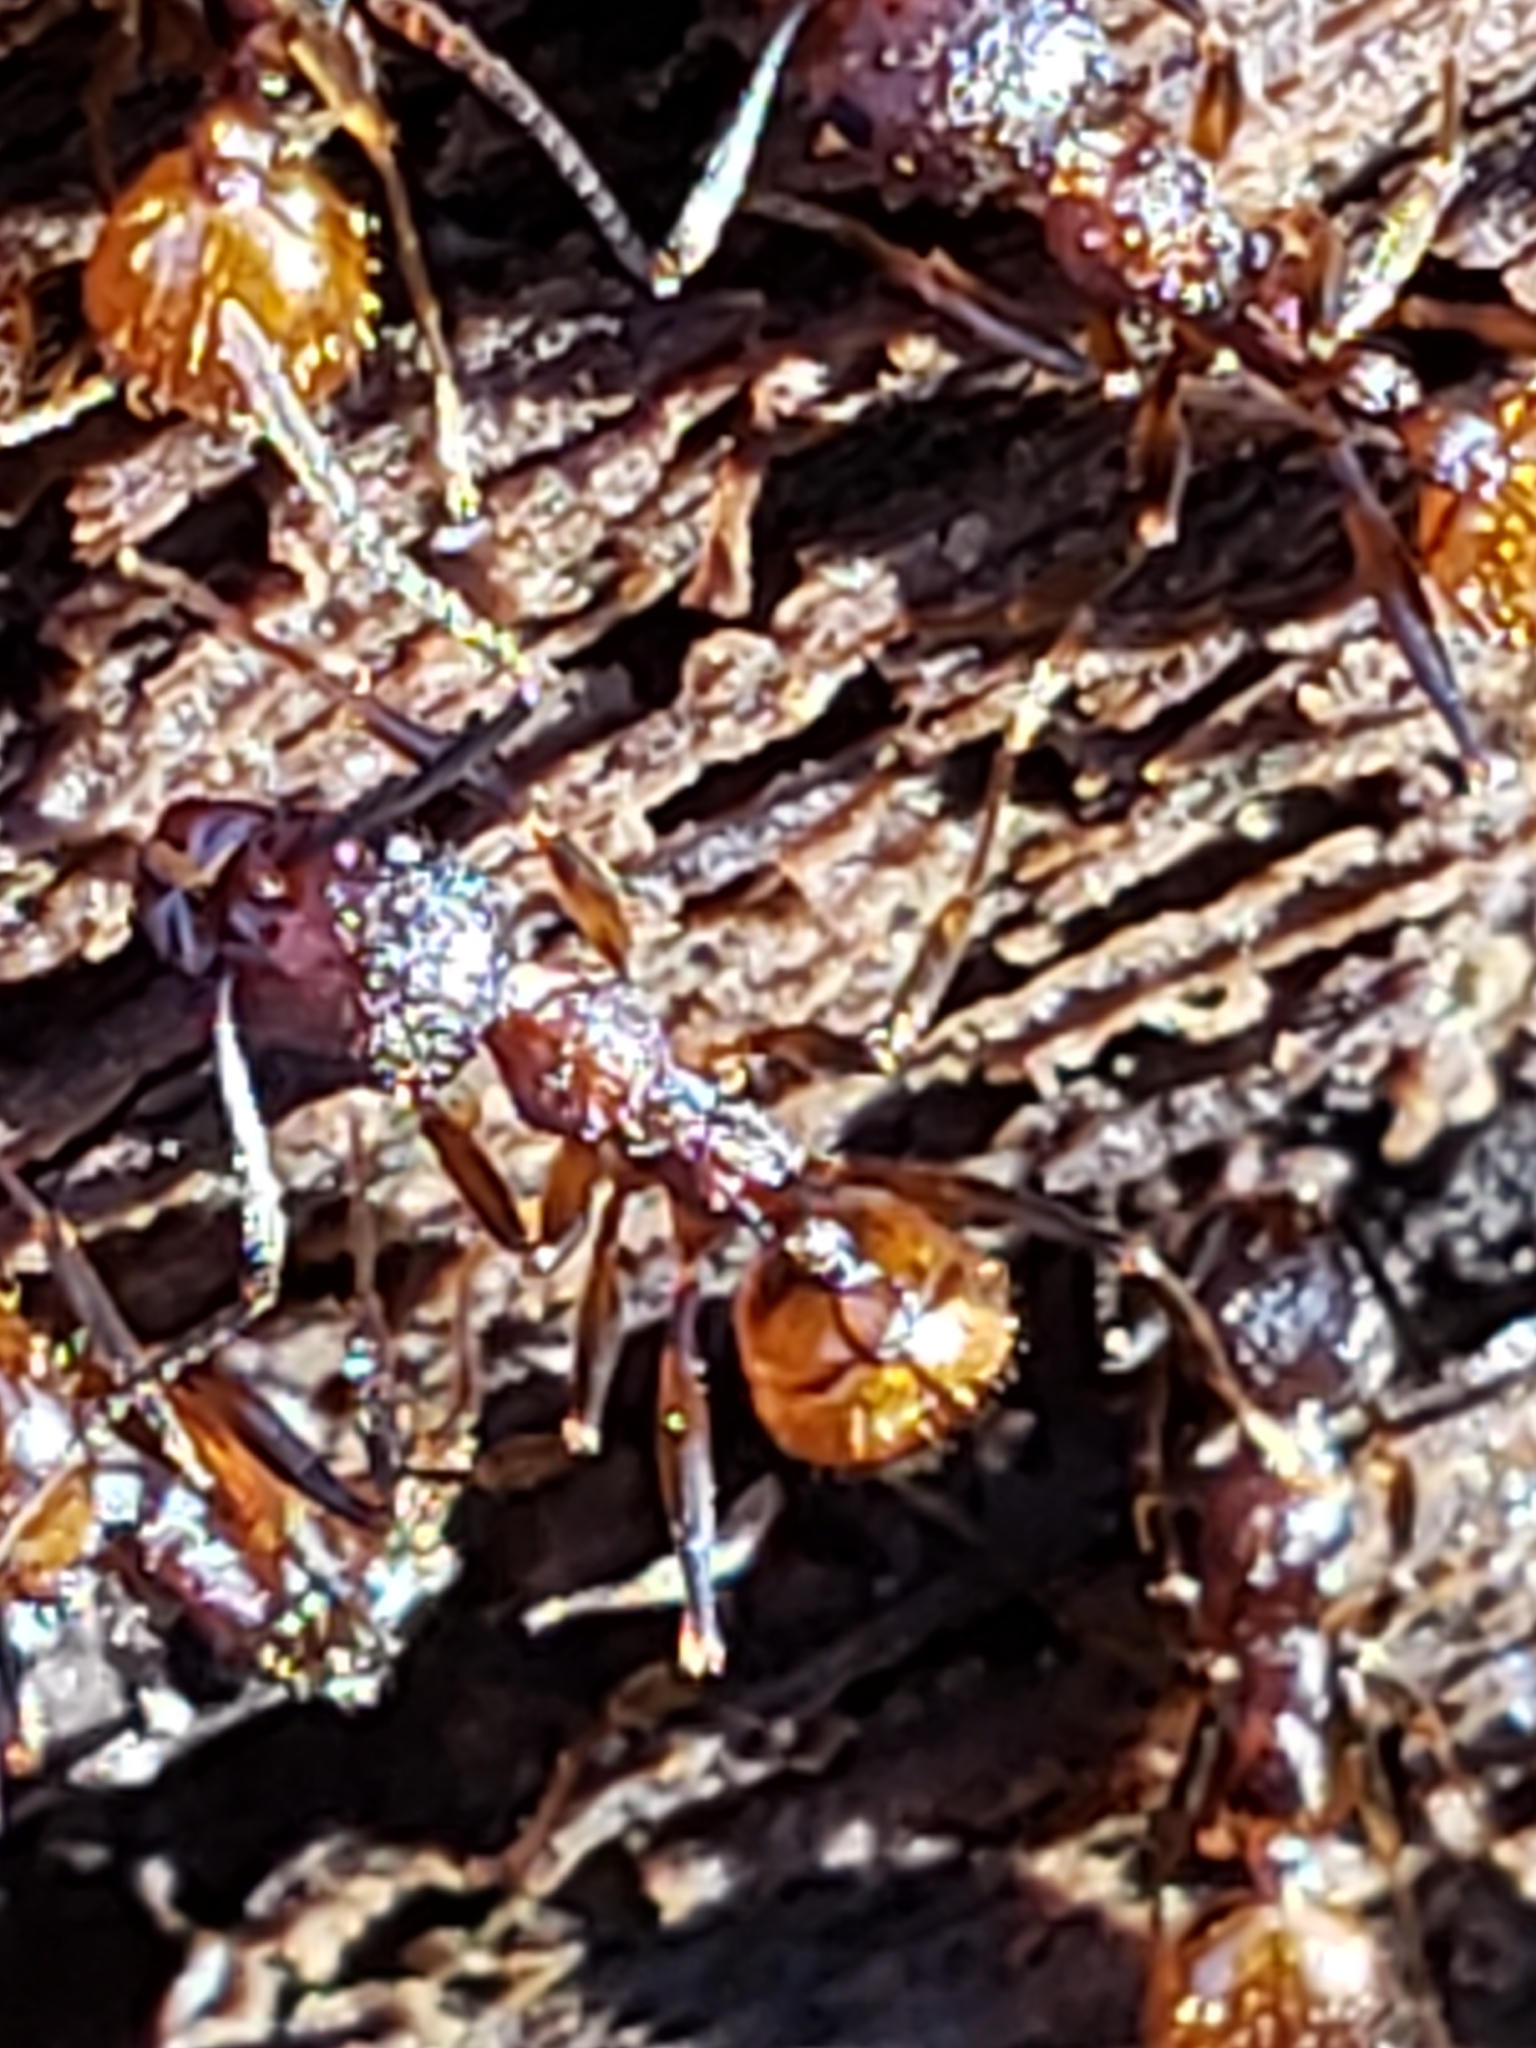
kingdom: Animalia
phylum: Arthropoda
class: Insecta
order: Hymenoptera
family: Formicidae
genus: Aphaenogaster
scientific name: Aphaenogaster fulva
